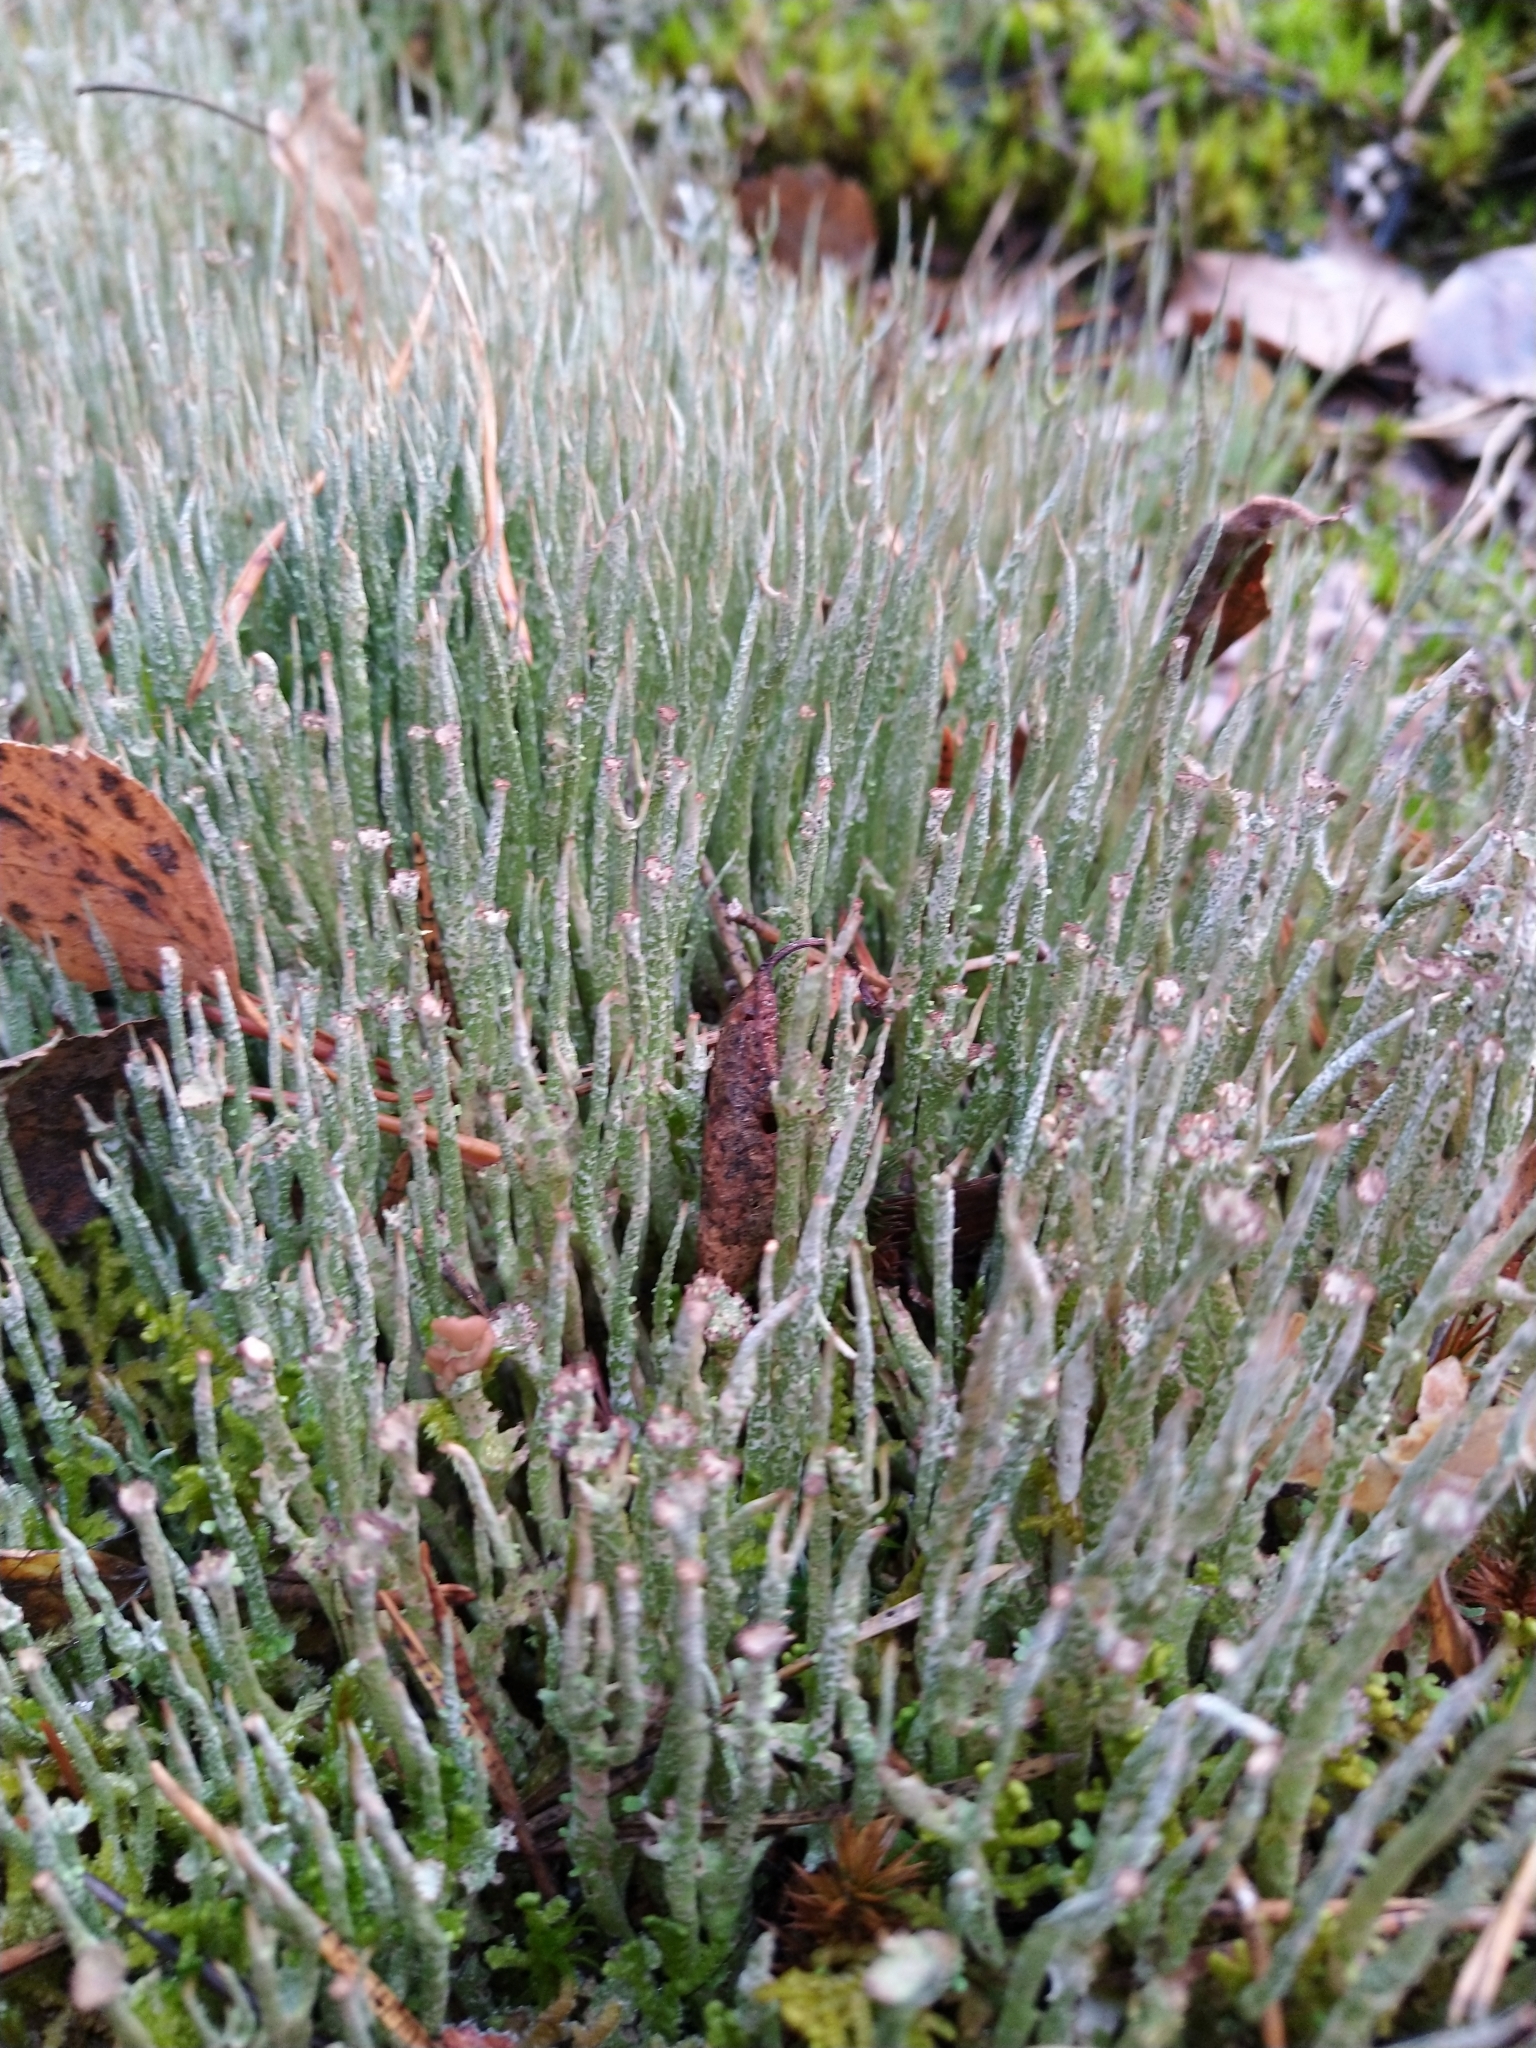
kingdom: Fungi
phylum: Ascomycota
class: Lecanoromycetes
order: Lecanorales
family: Cladoniaceae
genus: Cladonia
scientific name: Cladonia gracilis
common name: Smooth clad lichen
